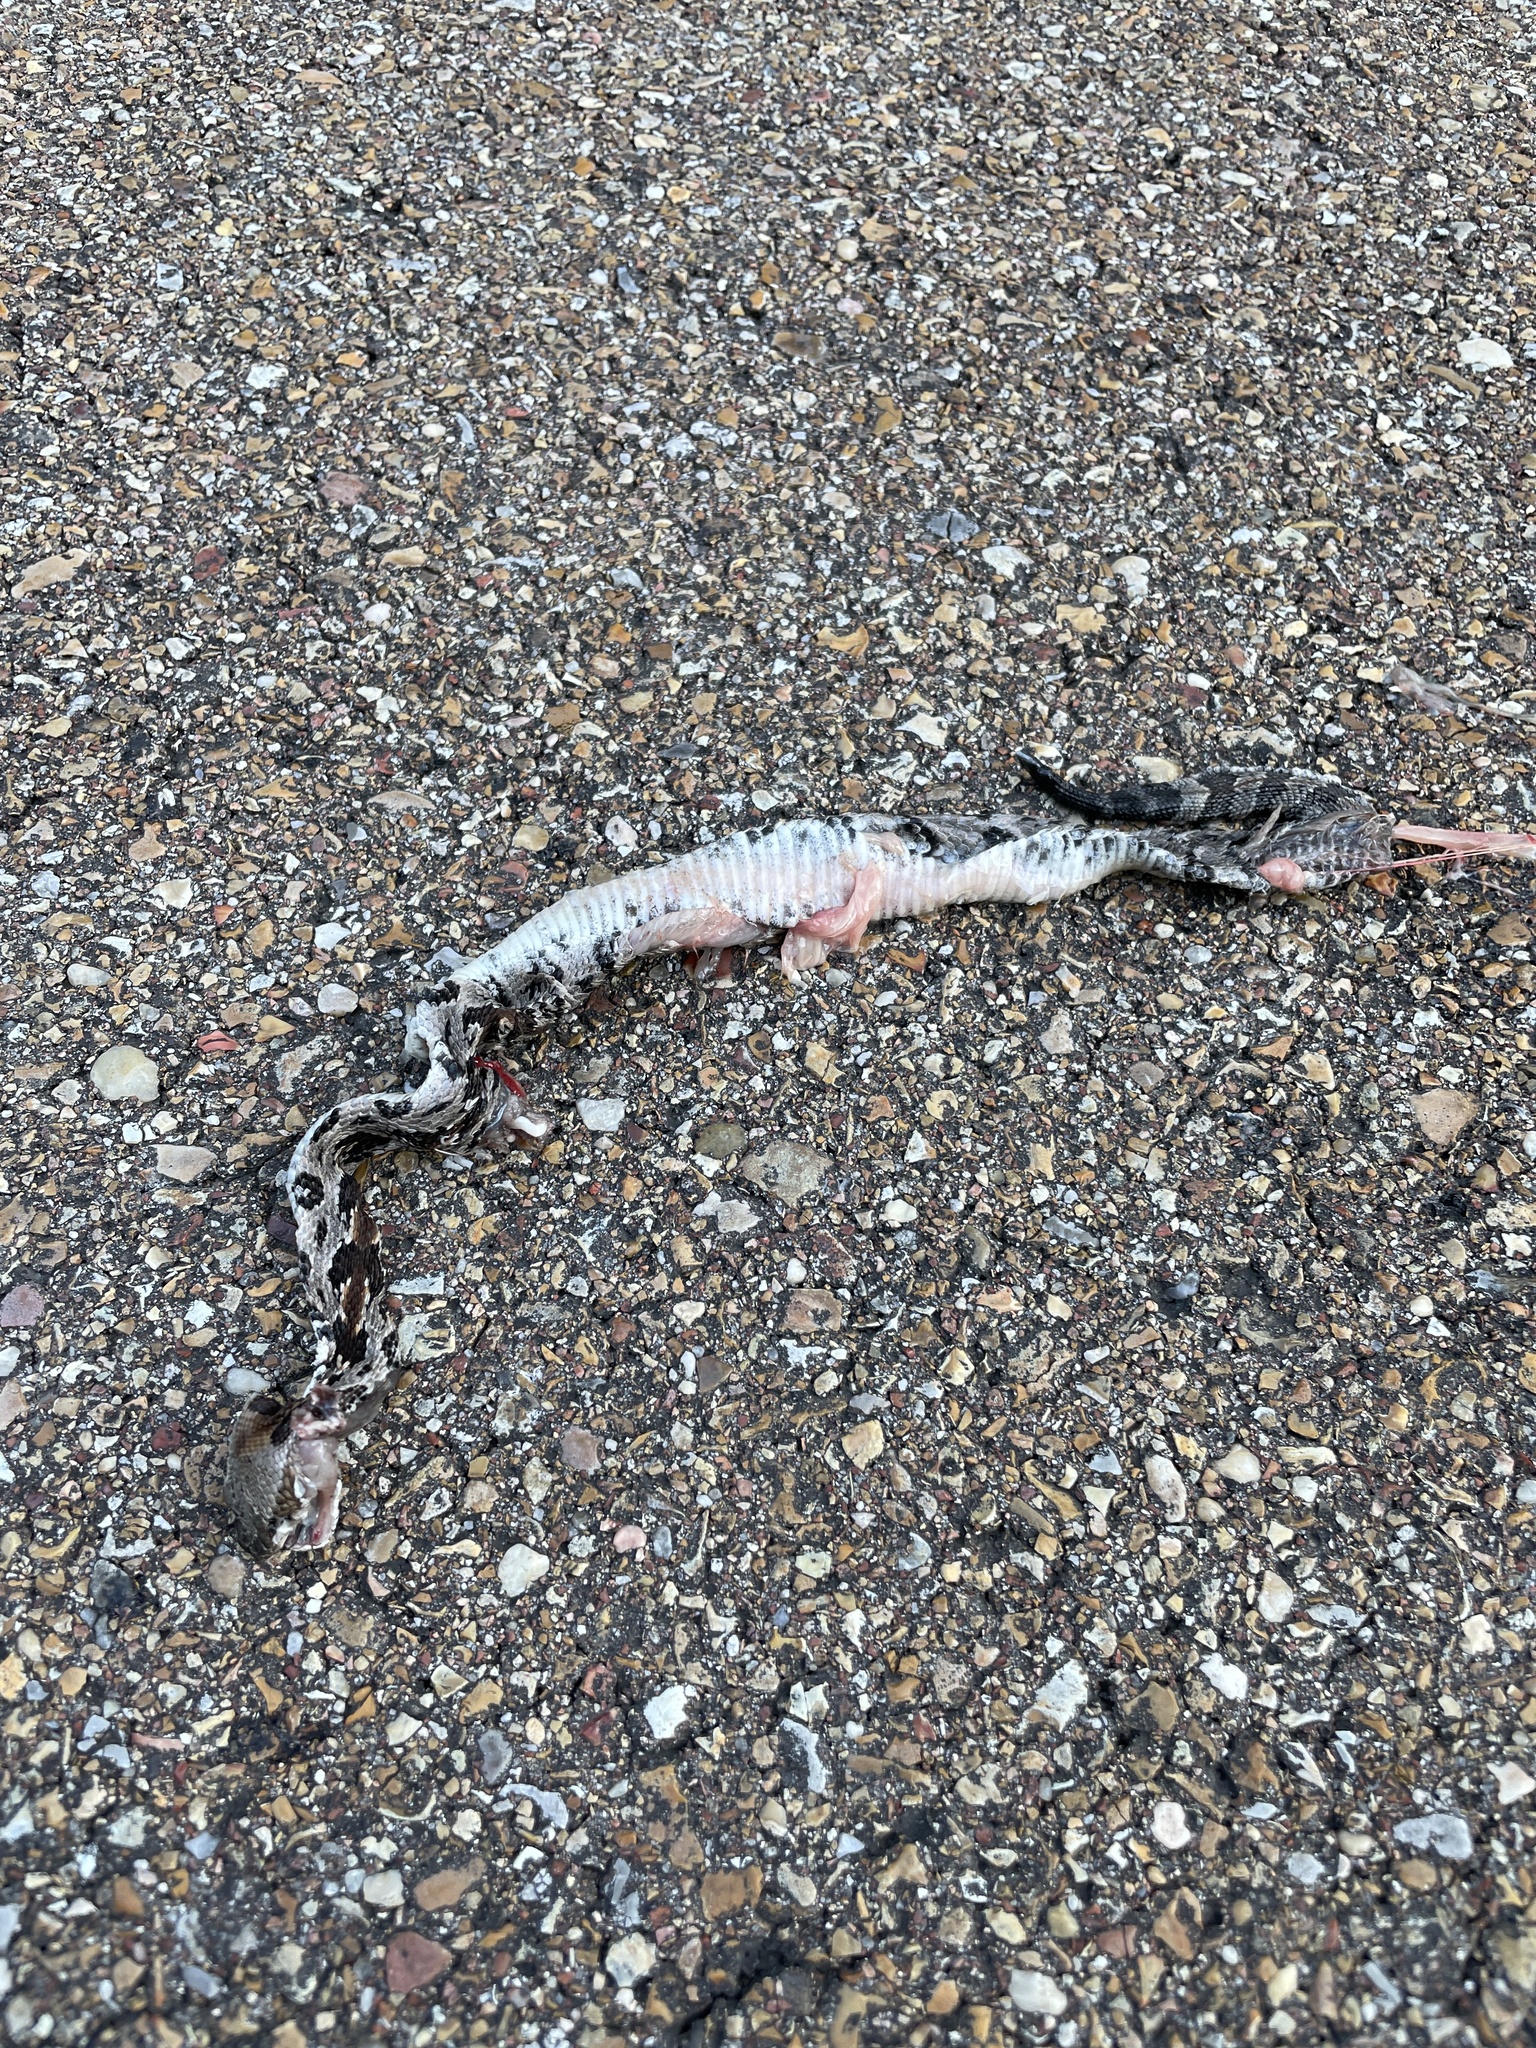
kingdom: Animalia
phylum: Chordata
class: Squamata
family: Viperidae
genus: Crotalus
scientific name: Crotalus horridus
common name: Timber rattlesnake
